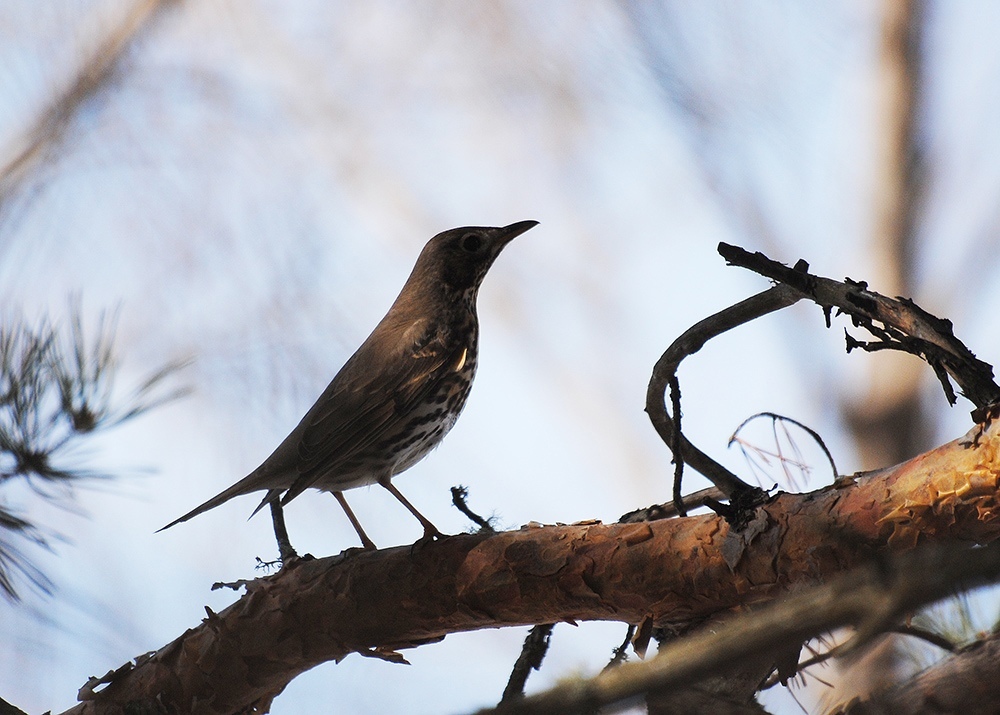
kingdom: Animalia
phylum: Chordata
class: Aves
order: Passeriformes
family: Turdidae
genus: Turdus
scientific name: Turdus philomelos
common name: Song thrush
